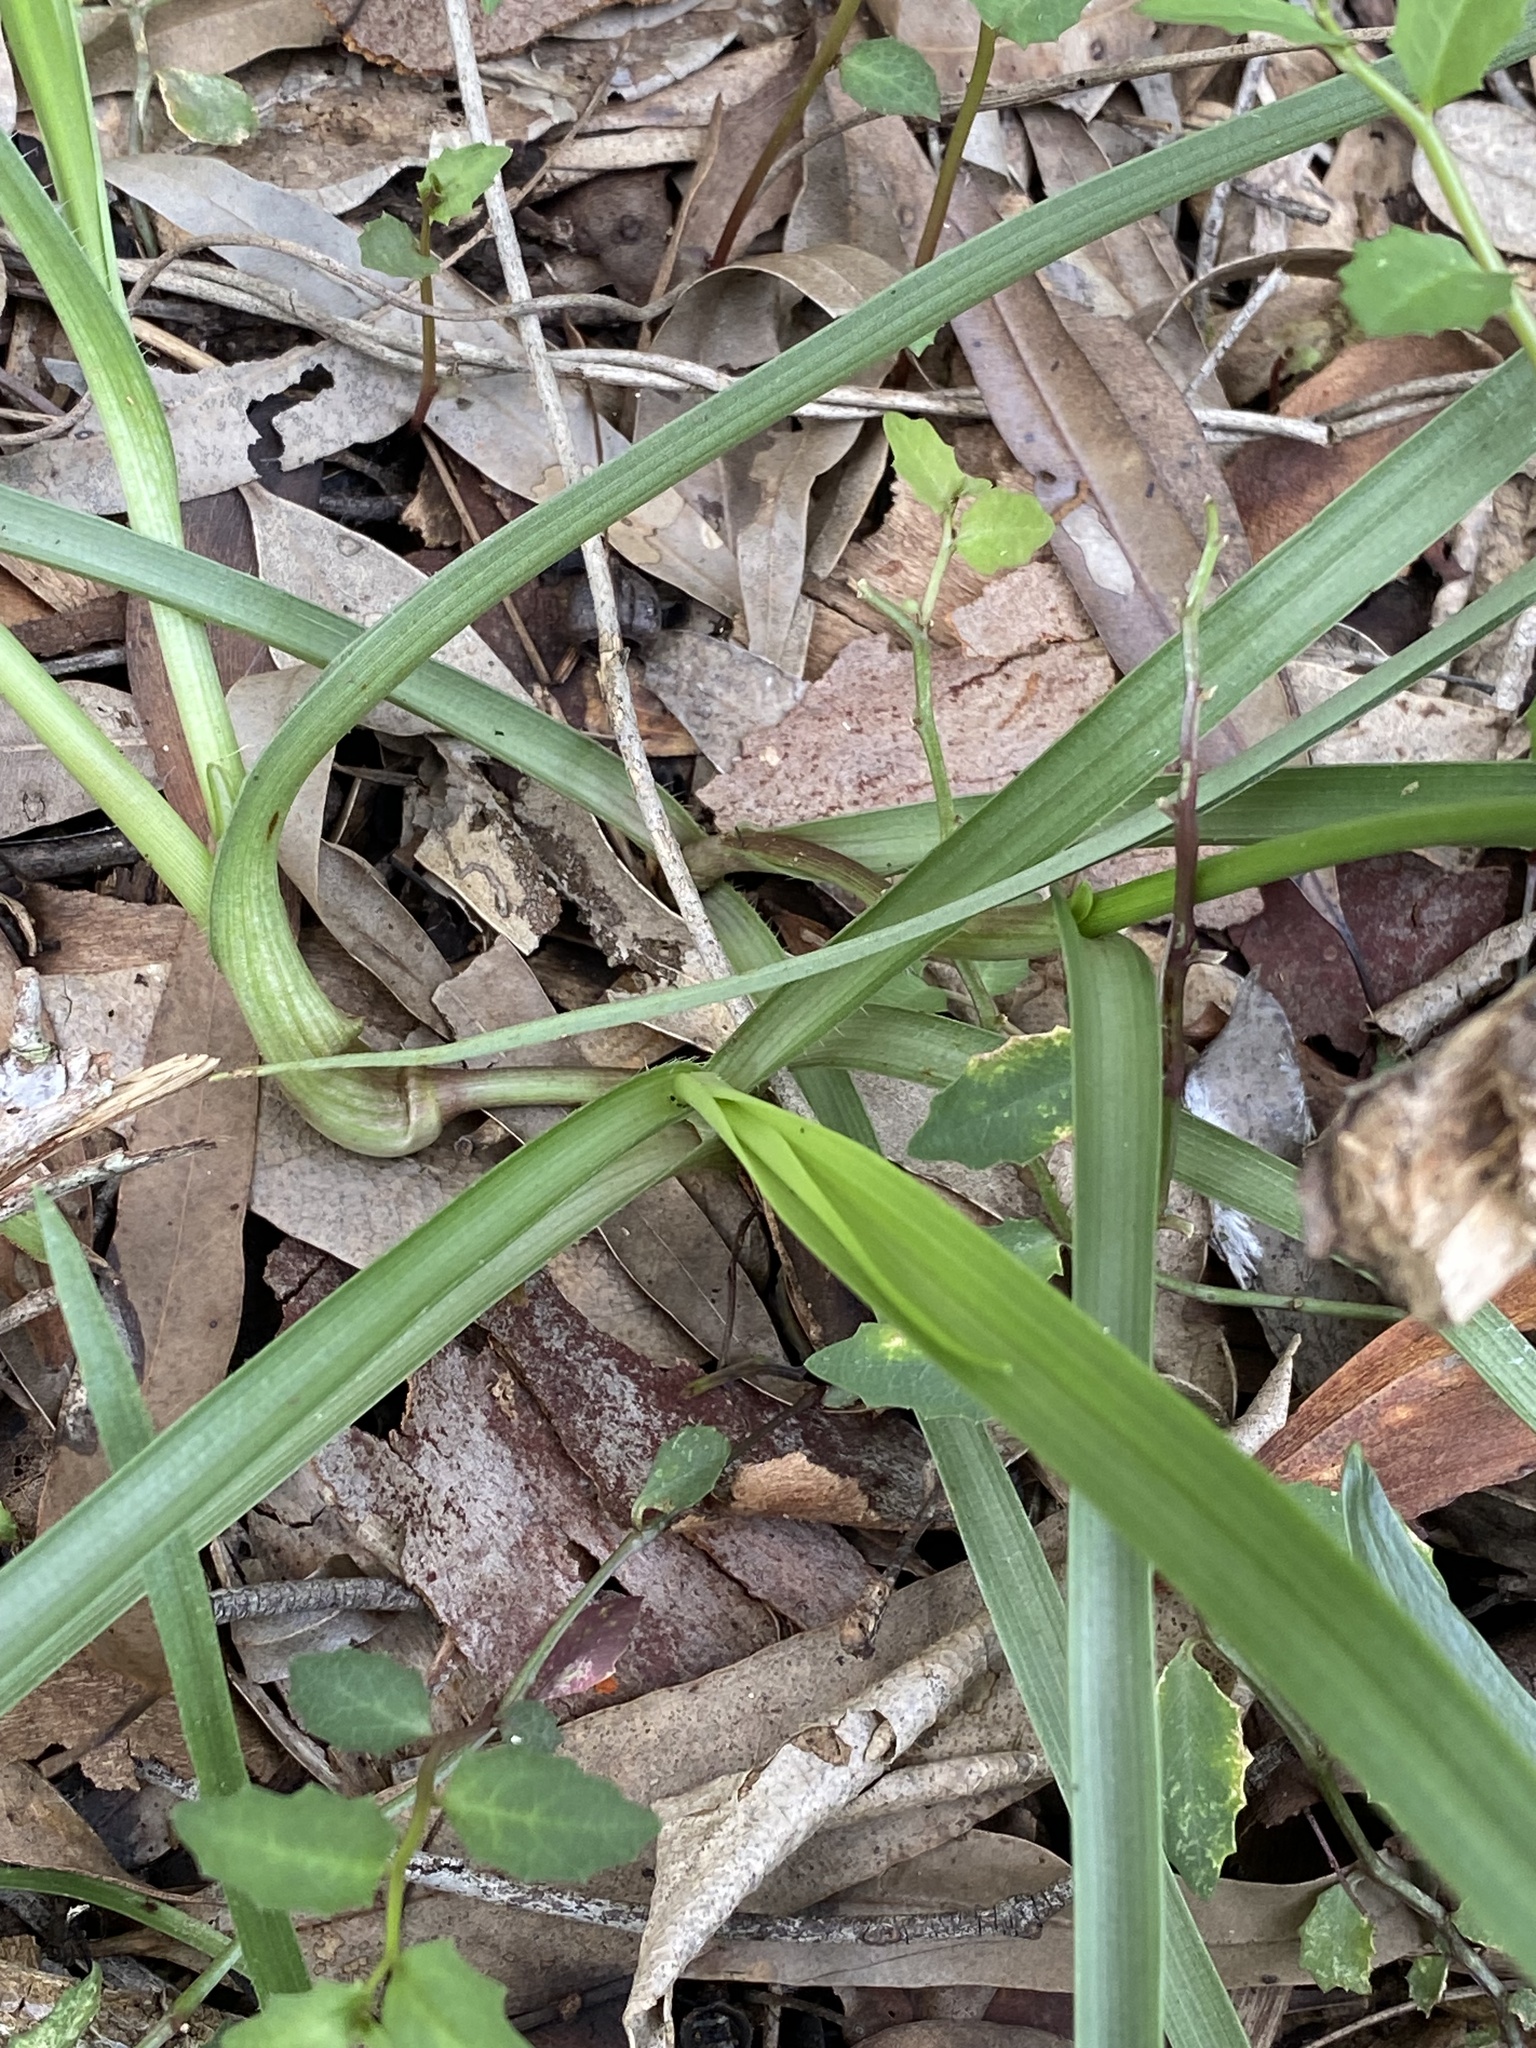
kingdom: Plantae
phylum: Tracheophyta
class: Liliopsida
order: Commelinales
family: Commelinaceae
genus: Murdannia
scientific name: Murdannia graminea
